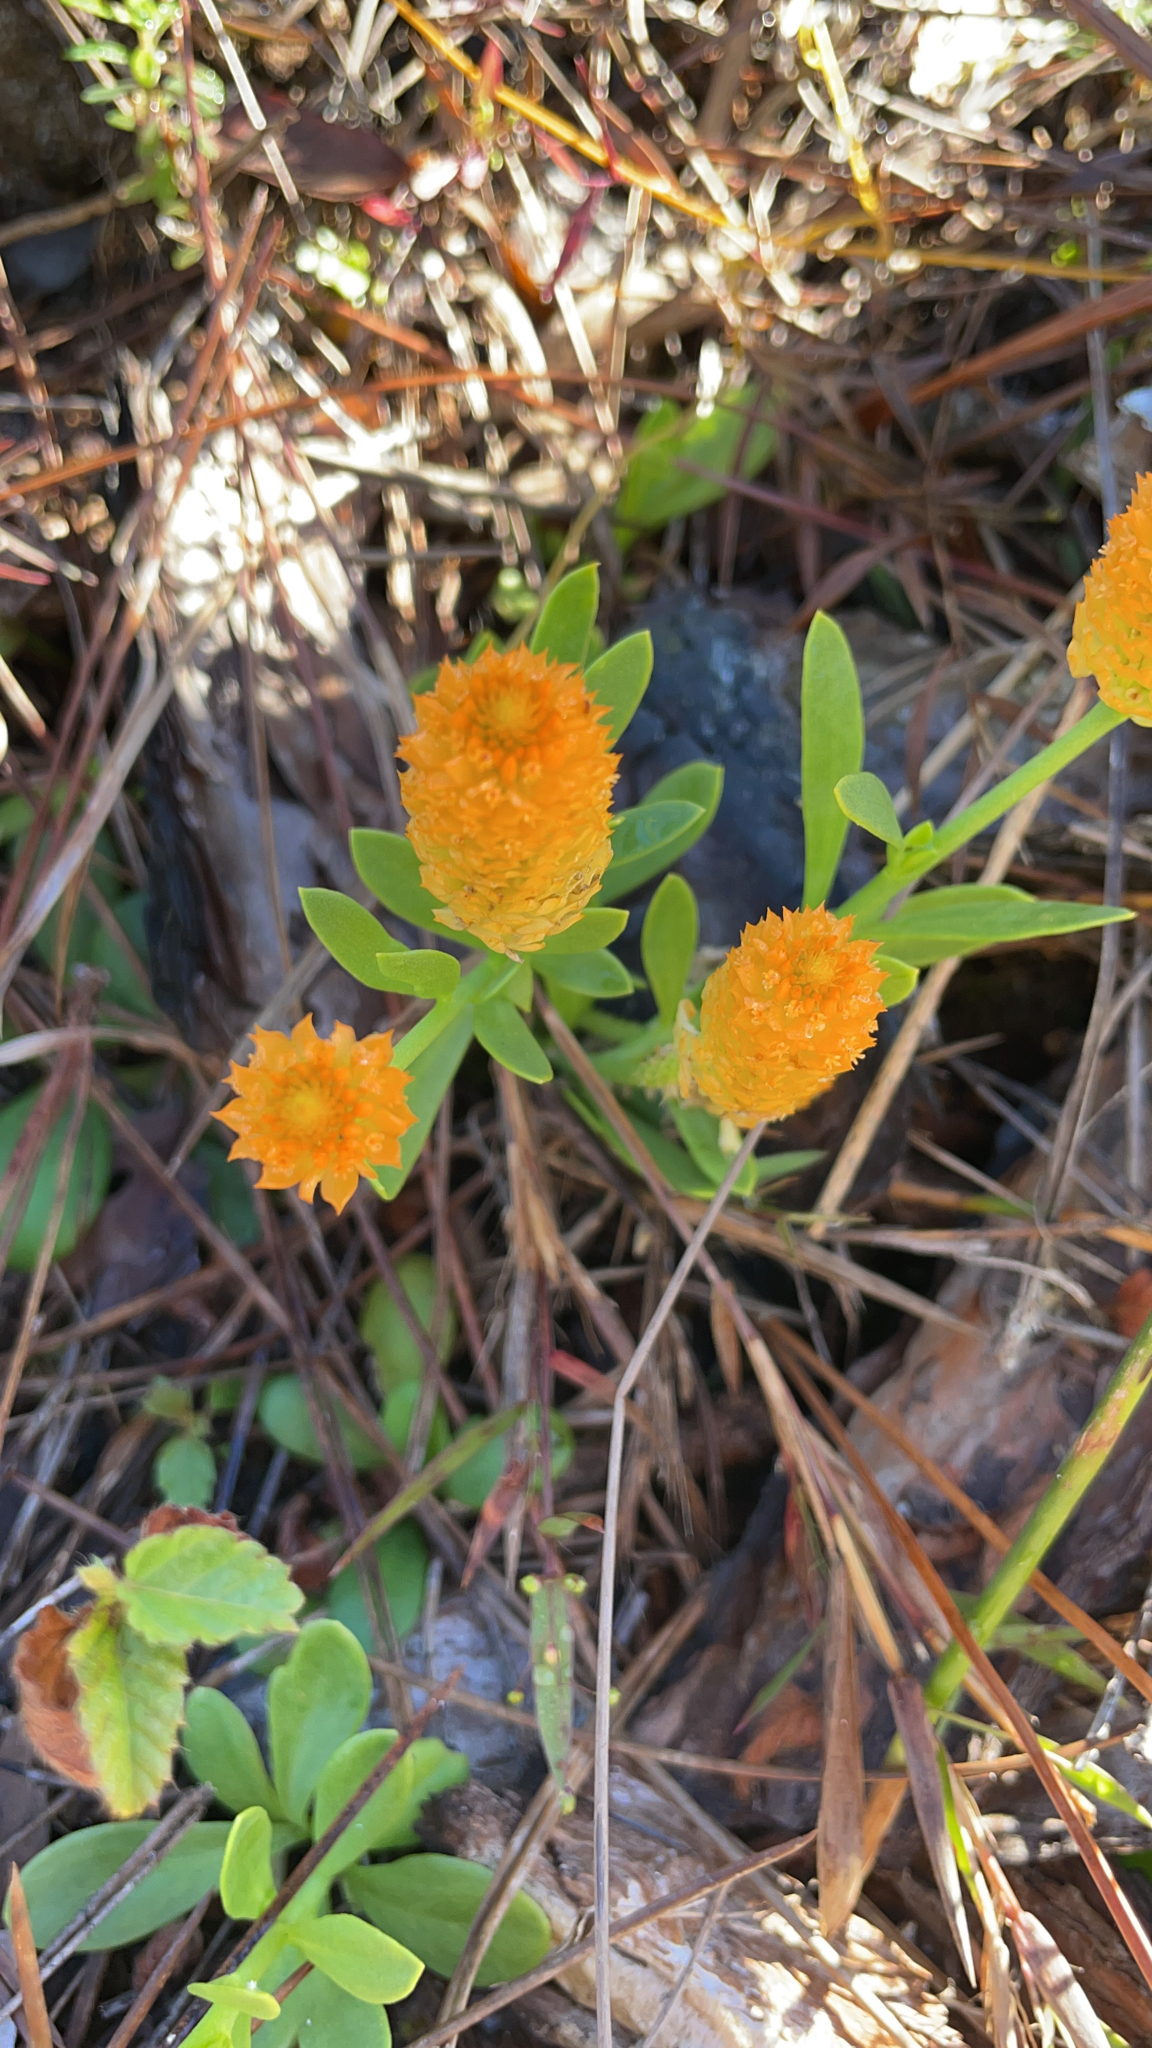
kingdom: Plantae
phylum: Tracheophyta
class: Magnoliopsida
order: Fabales
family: Polygalaceae
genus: Polygala
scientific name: Polygala lutea
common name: Orange milkwort
